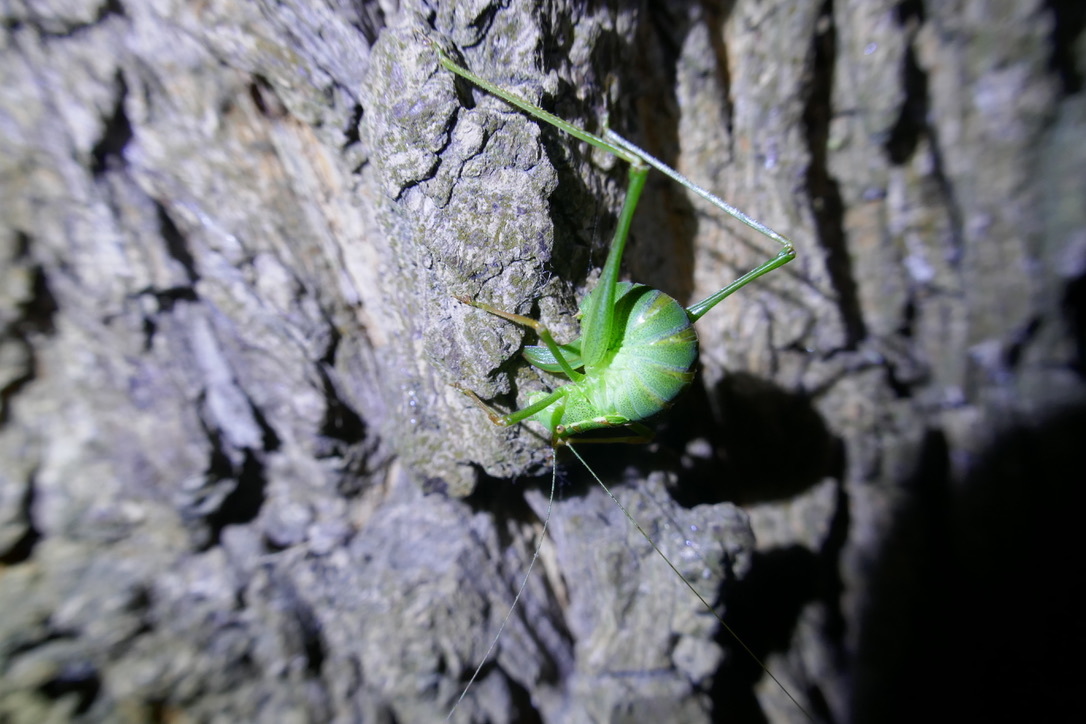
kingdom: Animalia
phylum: Arthropoda
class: Insecta
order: Orthoptera
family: Tettigoniidae
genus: Leptophyes
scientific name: Leptophyes punctatissima
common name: Speckled bush-cricket
